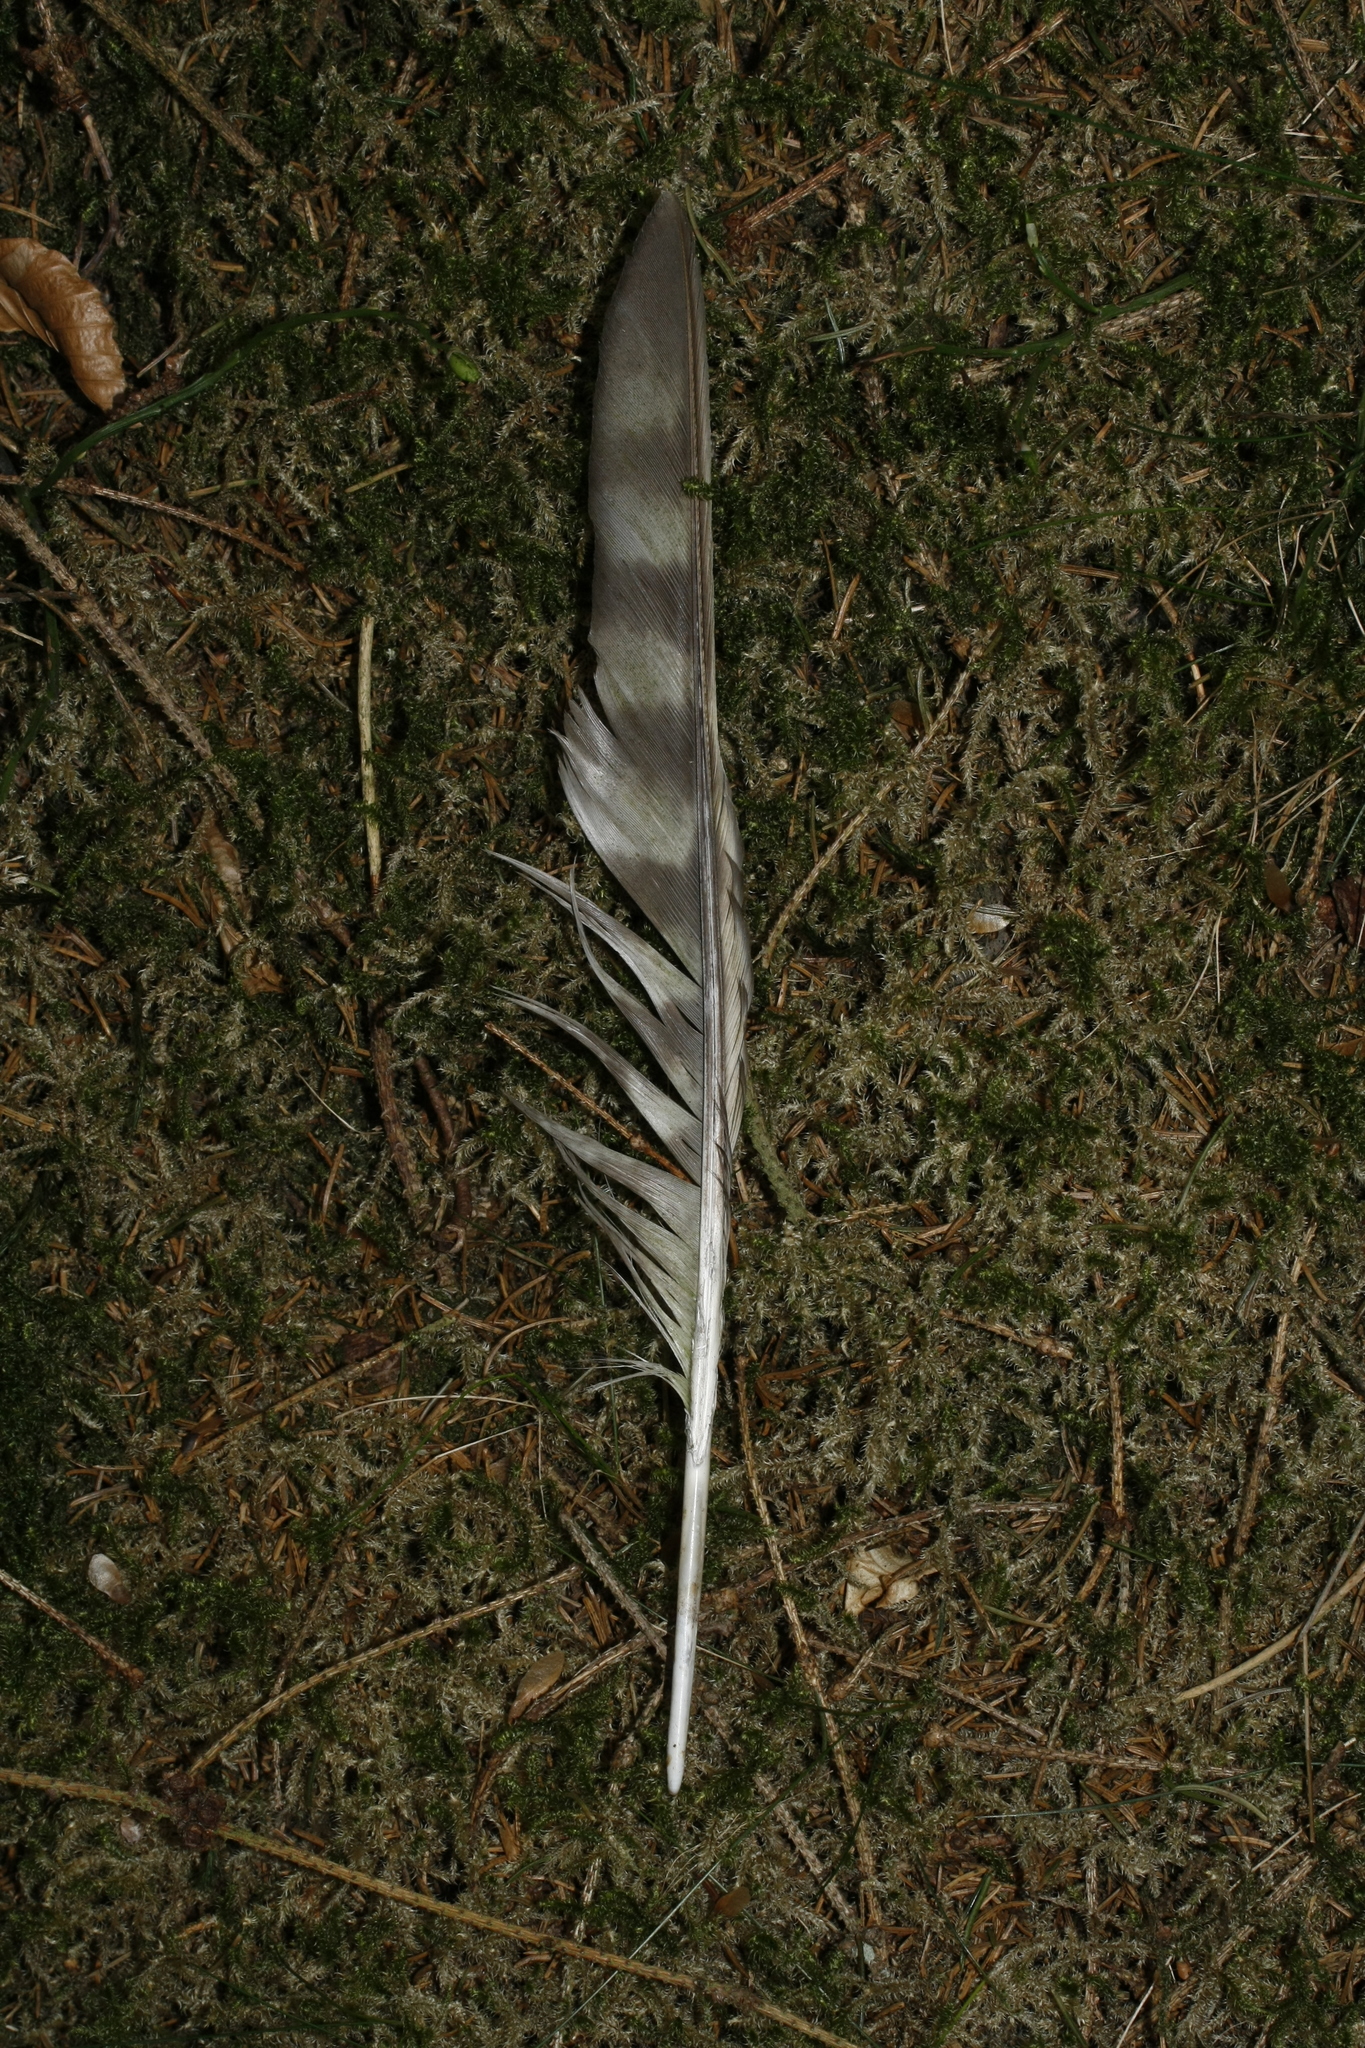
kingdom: Animalia
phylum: Chordata
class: Aves
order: Accipitriformes
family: Accipitridae
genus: Accipiter
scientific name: Accipiter gentilis
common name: Northern goshawk
